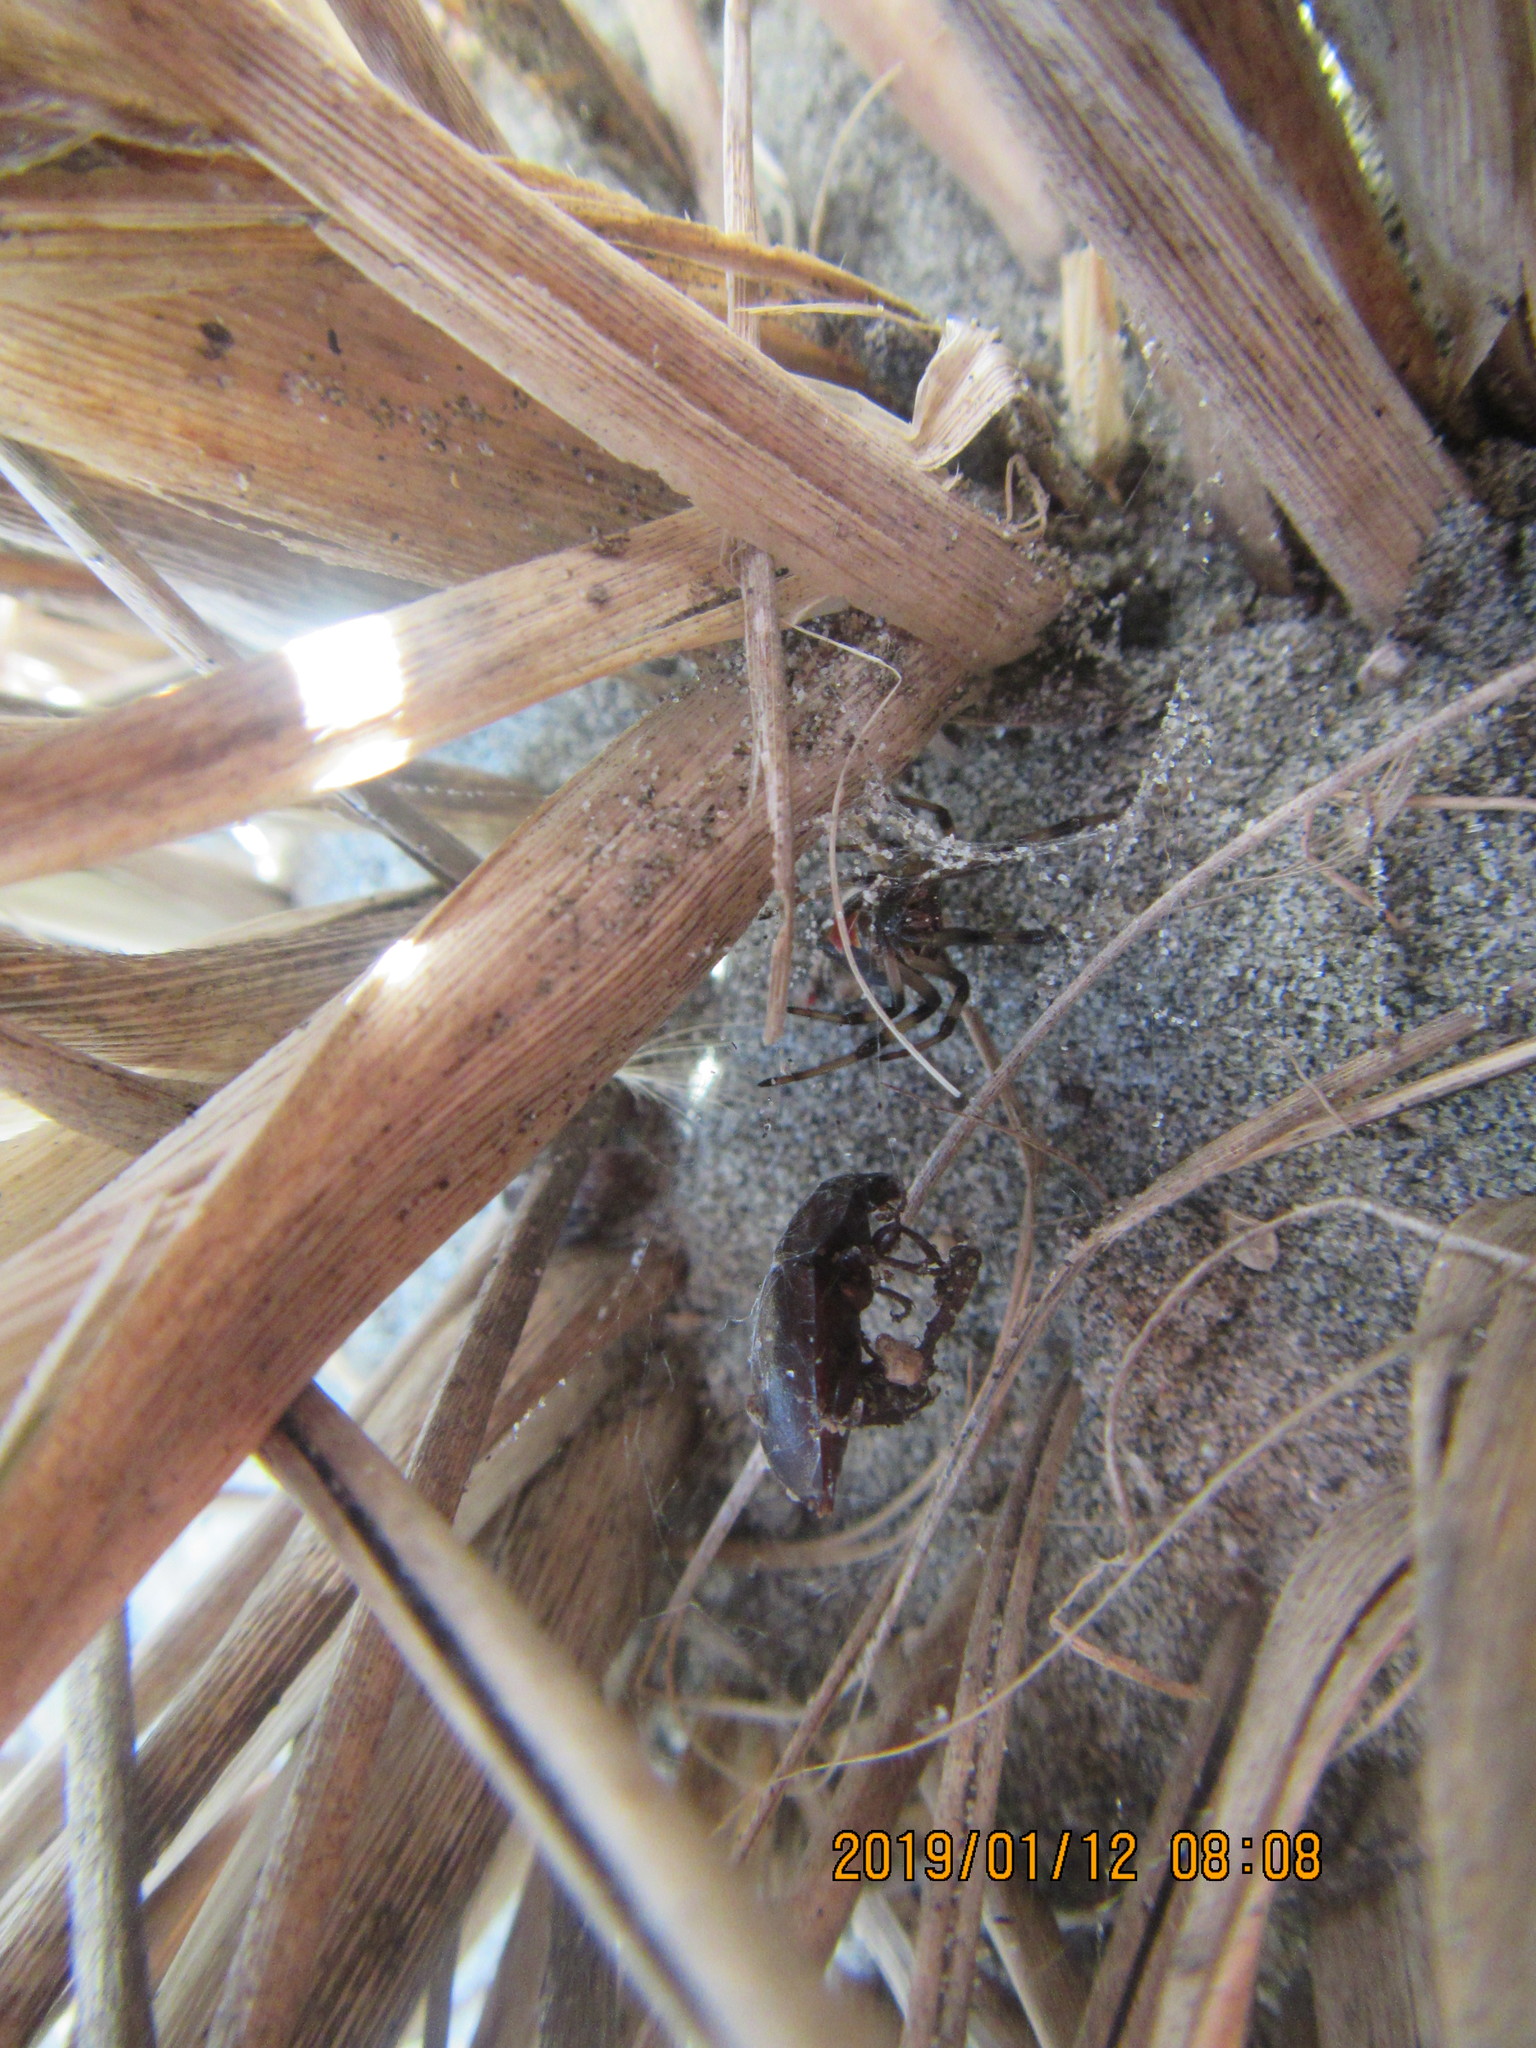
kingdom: Animalia
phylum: Arthropoda
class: Arachnida
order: Araneae
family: Theridiidae
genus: Latrodectus
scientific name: Latrodectus katipo
